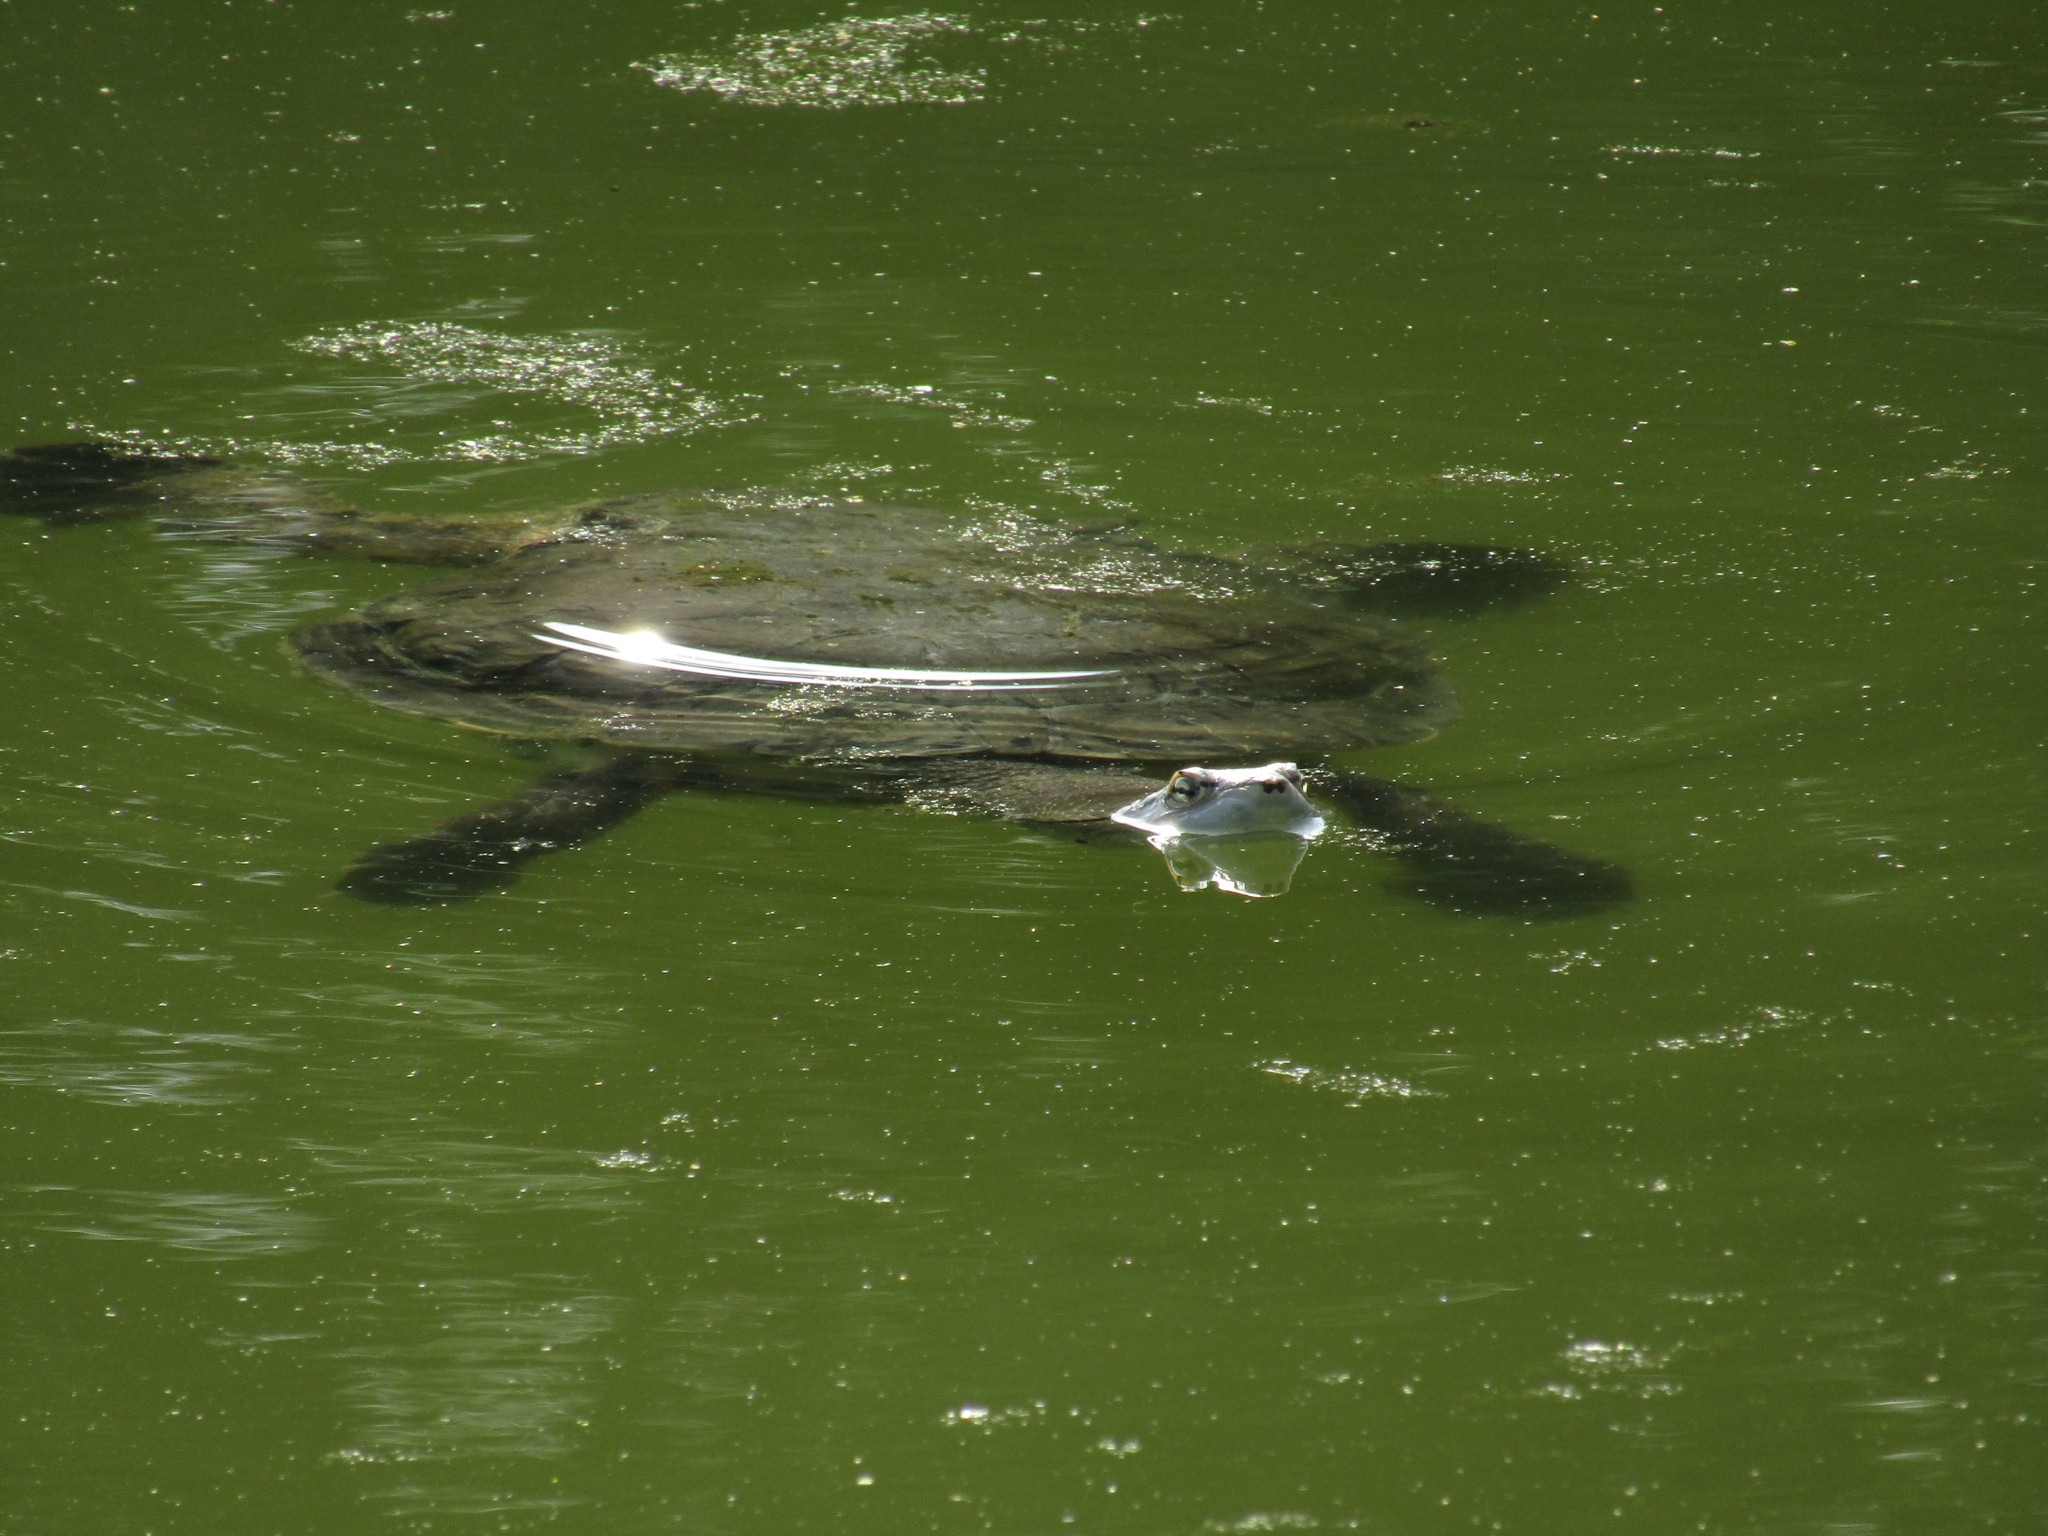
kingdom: Animalia
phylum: Chordata
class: Testudines
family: Chelidae
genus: Phrynops
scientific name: Phrynops hilarii
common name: Side-necked turtle of saint hillaire
